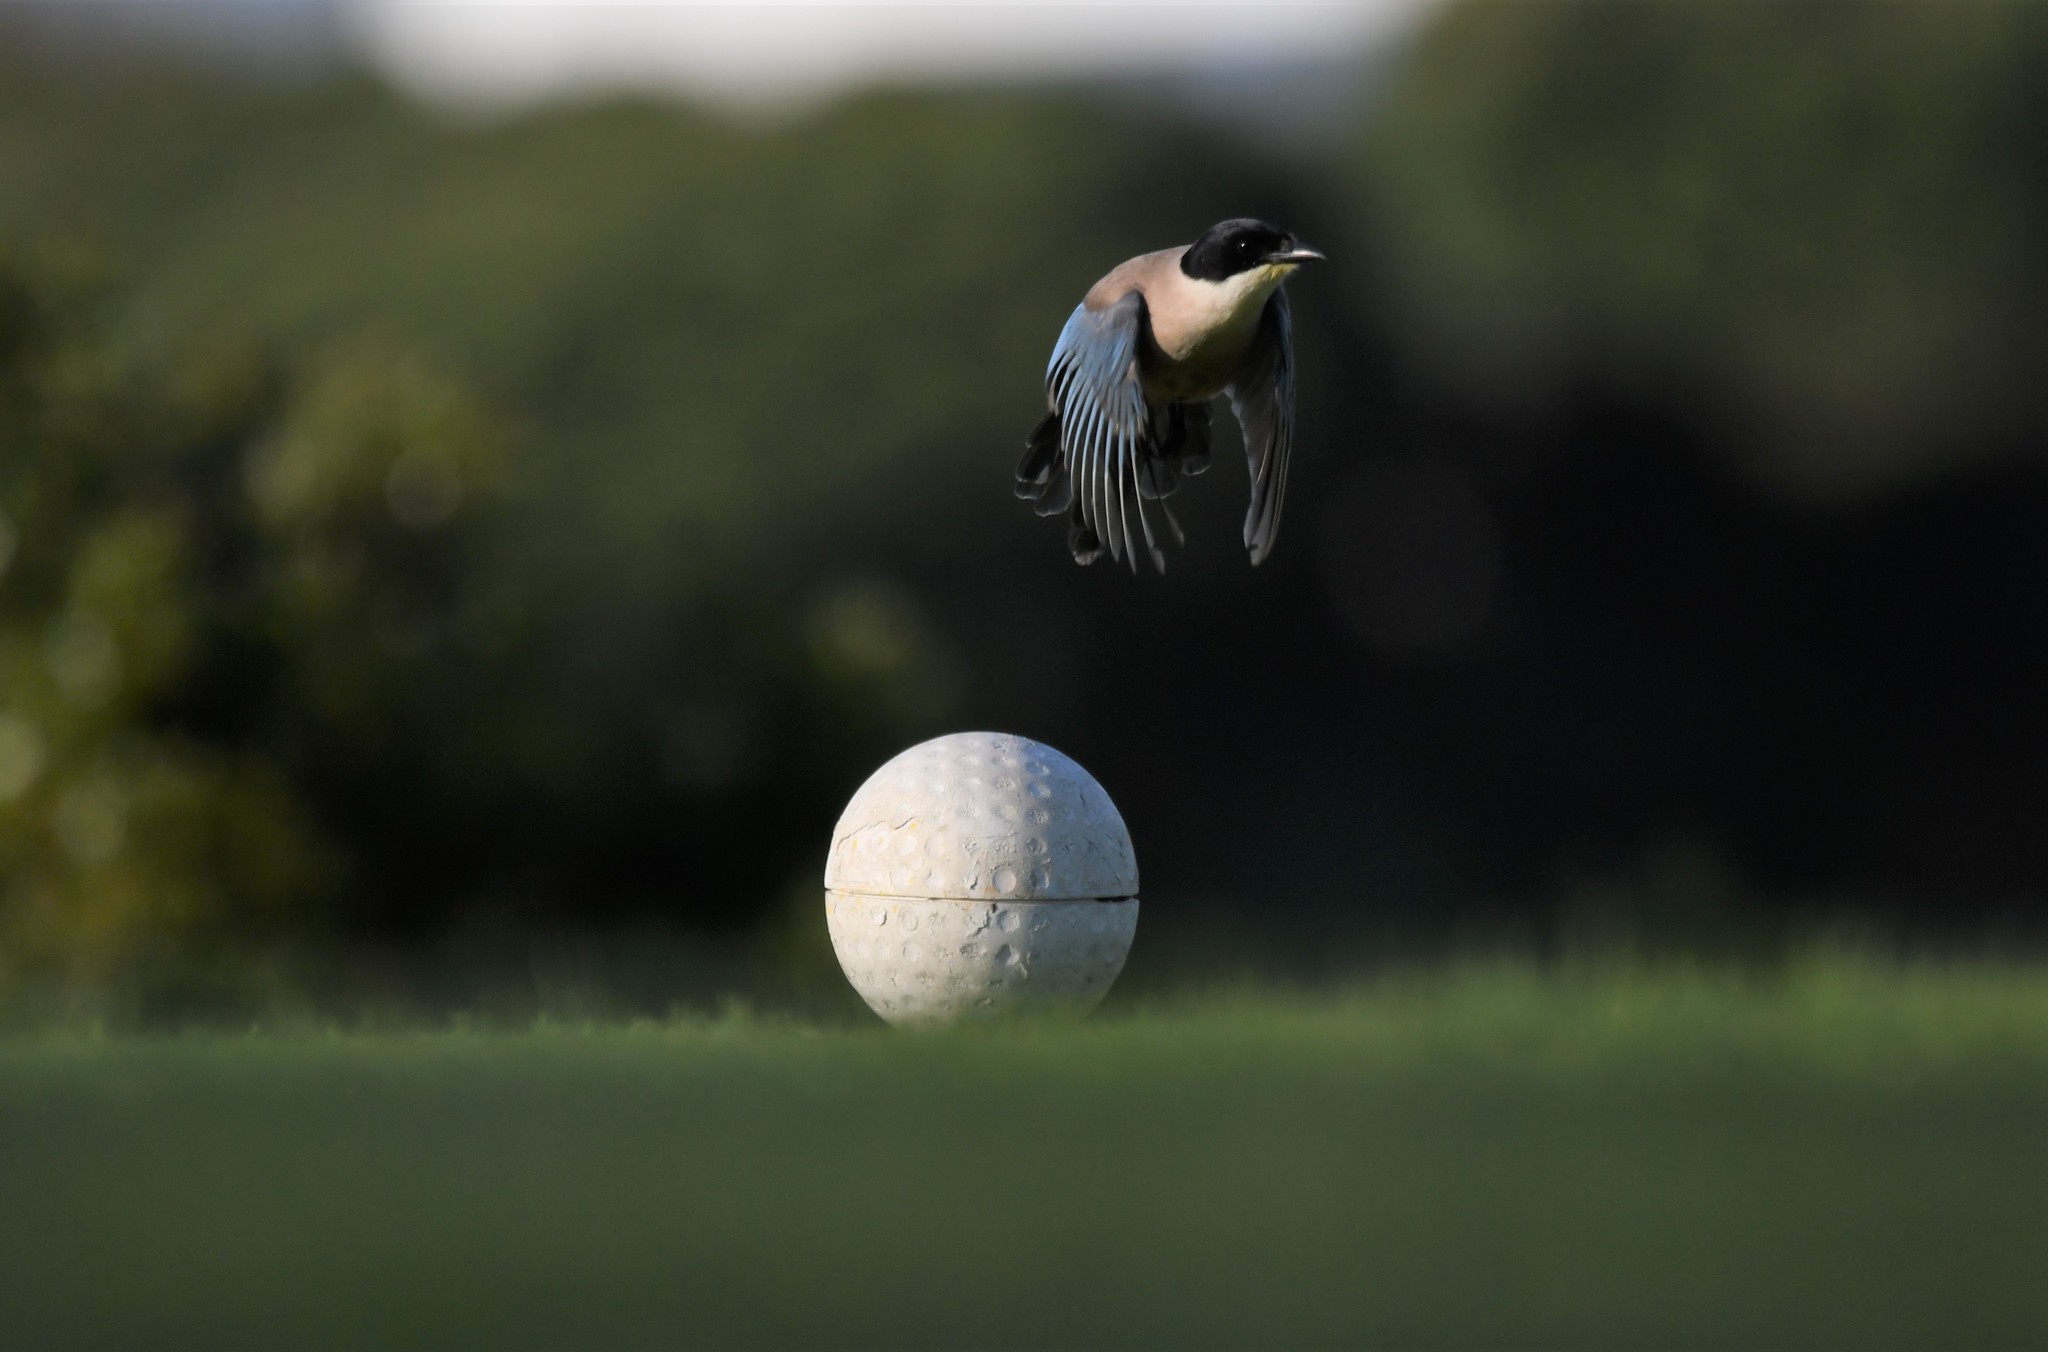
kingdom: Animalia
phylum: Chordata
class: Aves
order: Passeriformes
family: Corvidae
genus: Cyanopica
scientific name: Cyanopica cooki
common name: Iberian magpie
